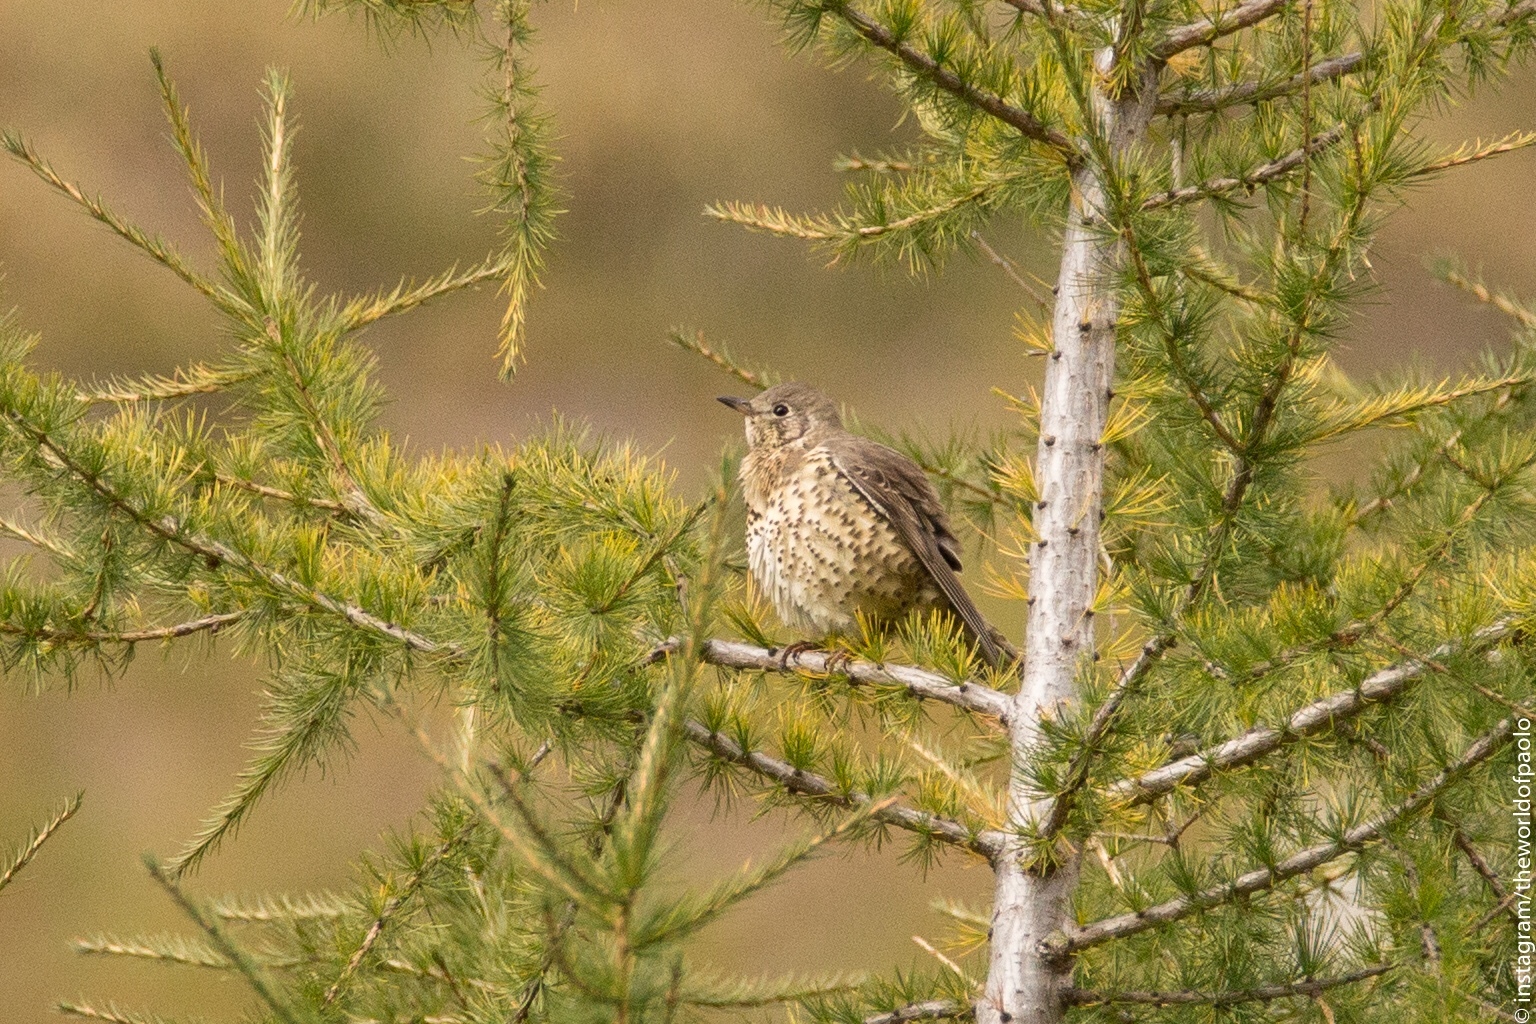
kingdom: Animalia
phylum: Chordata
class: Aves
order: Passeriformes
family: Turdidae
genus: Turdus
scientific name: Turdus viscivorus
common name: Mistle thrush
